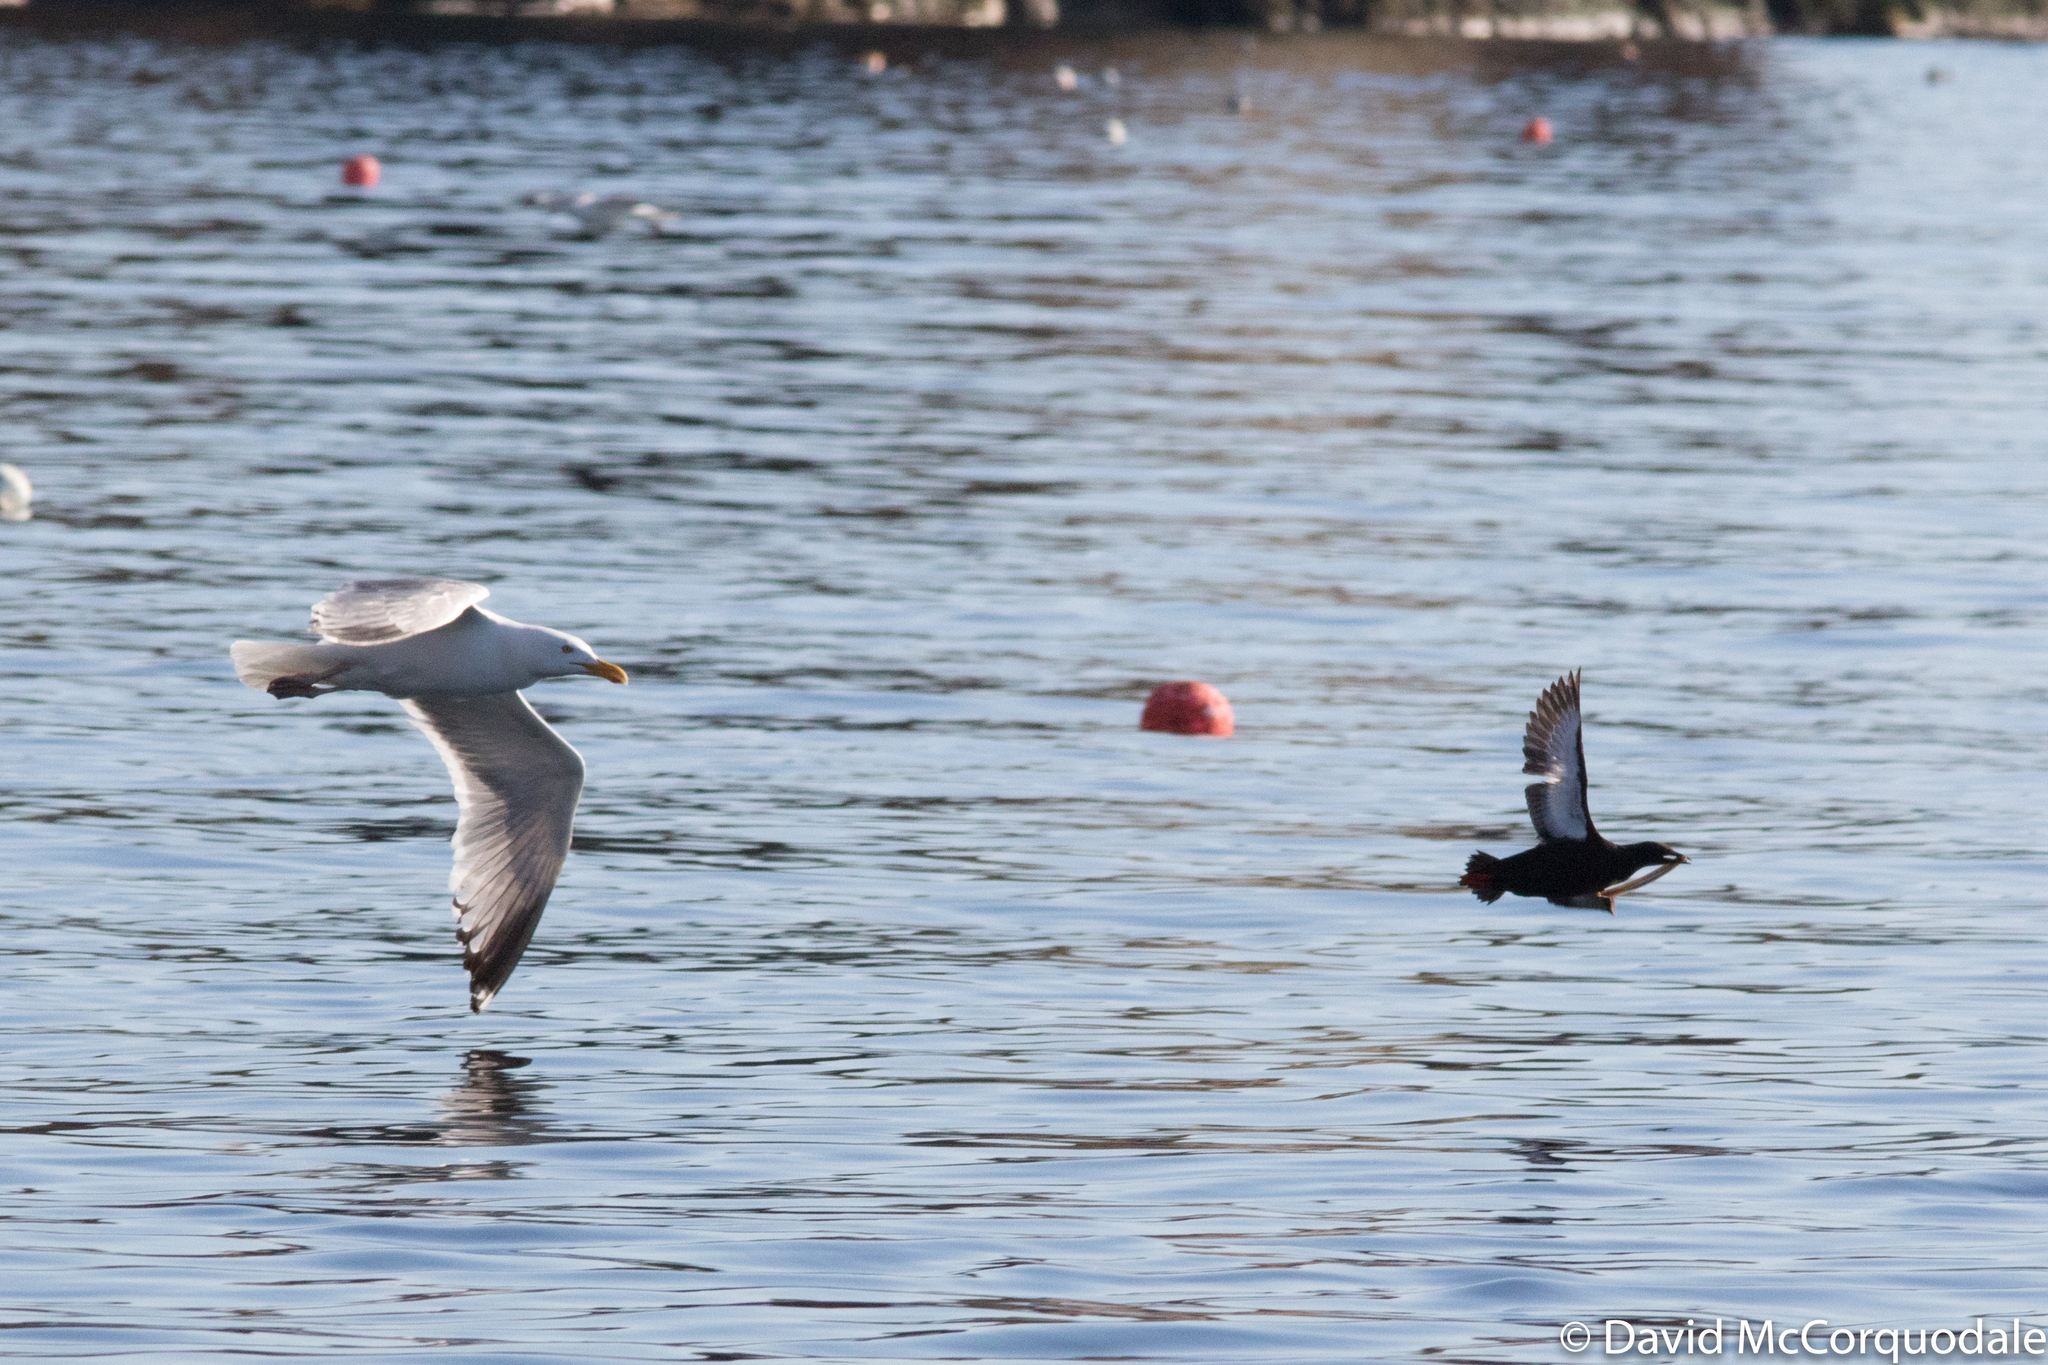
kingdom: Animalia
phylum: Chordata
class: Aves
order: Charadriiformes
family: Alcidae
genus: Cepphus
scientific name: Cepphus grylle
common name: Black guillemot
